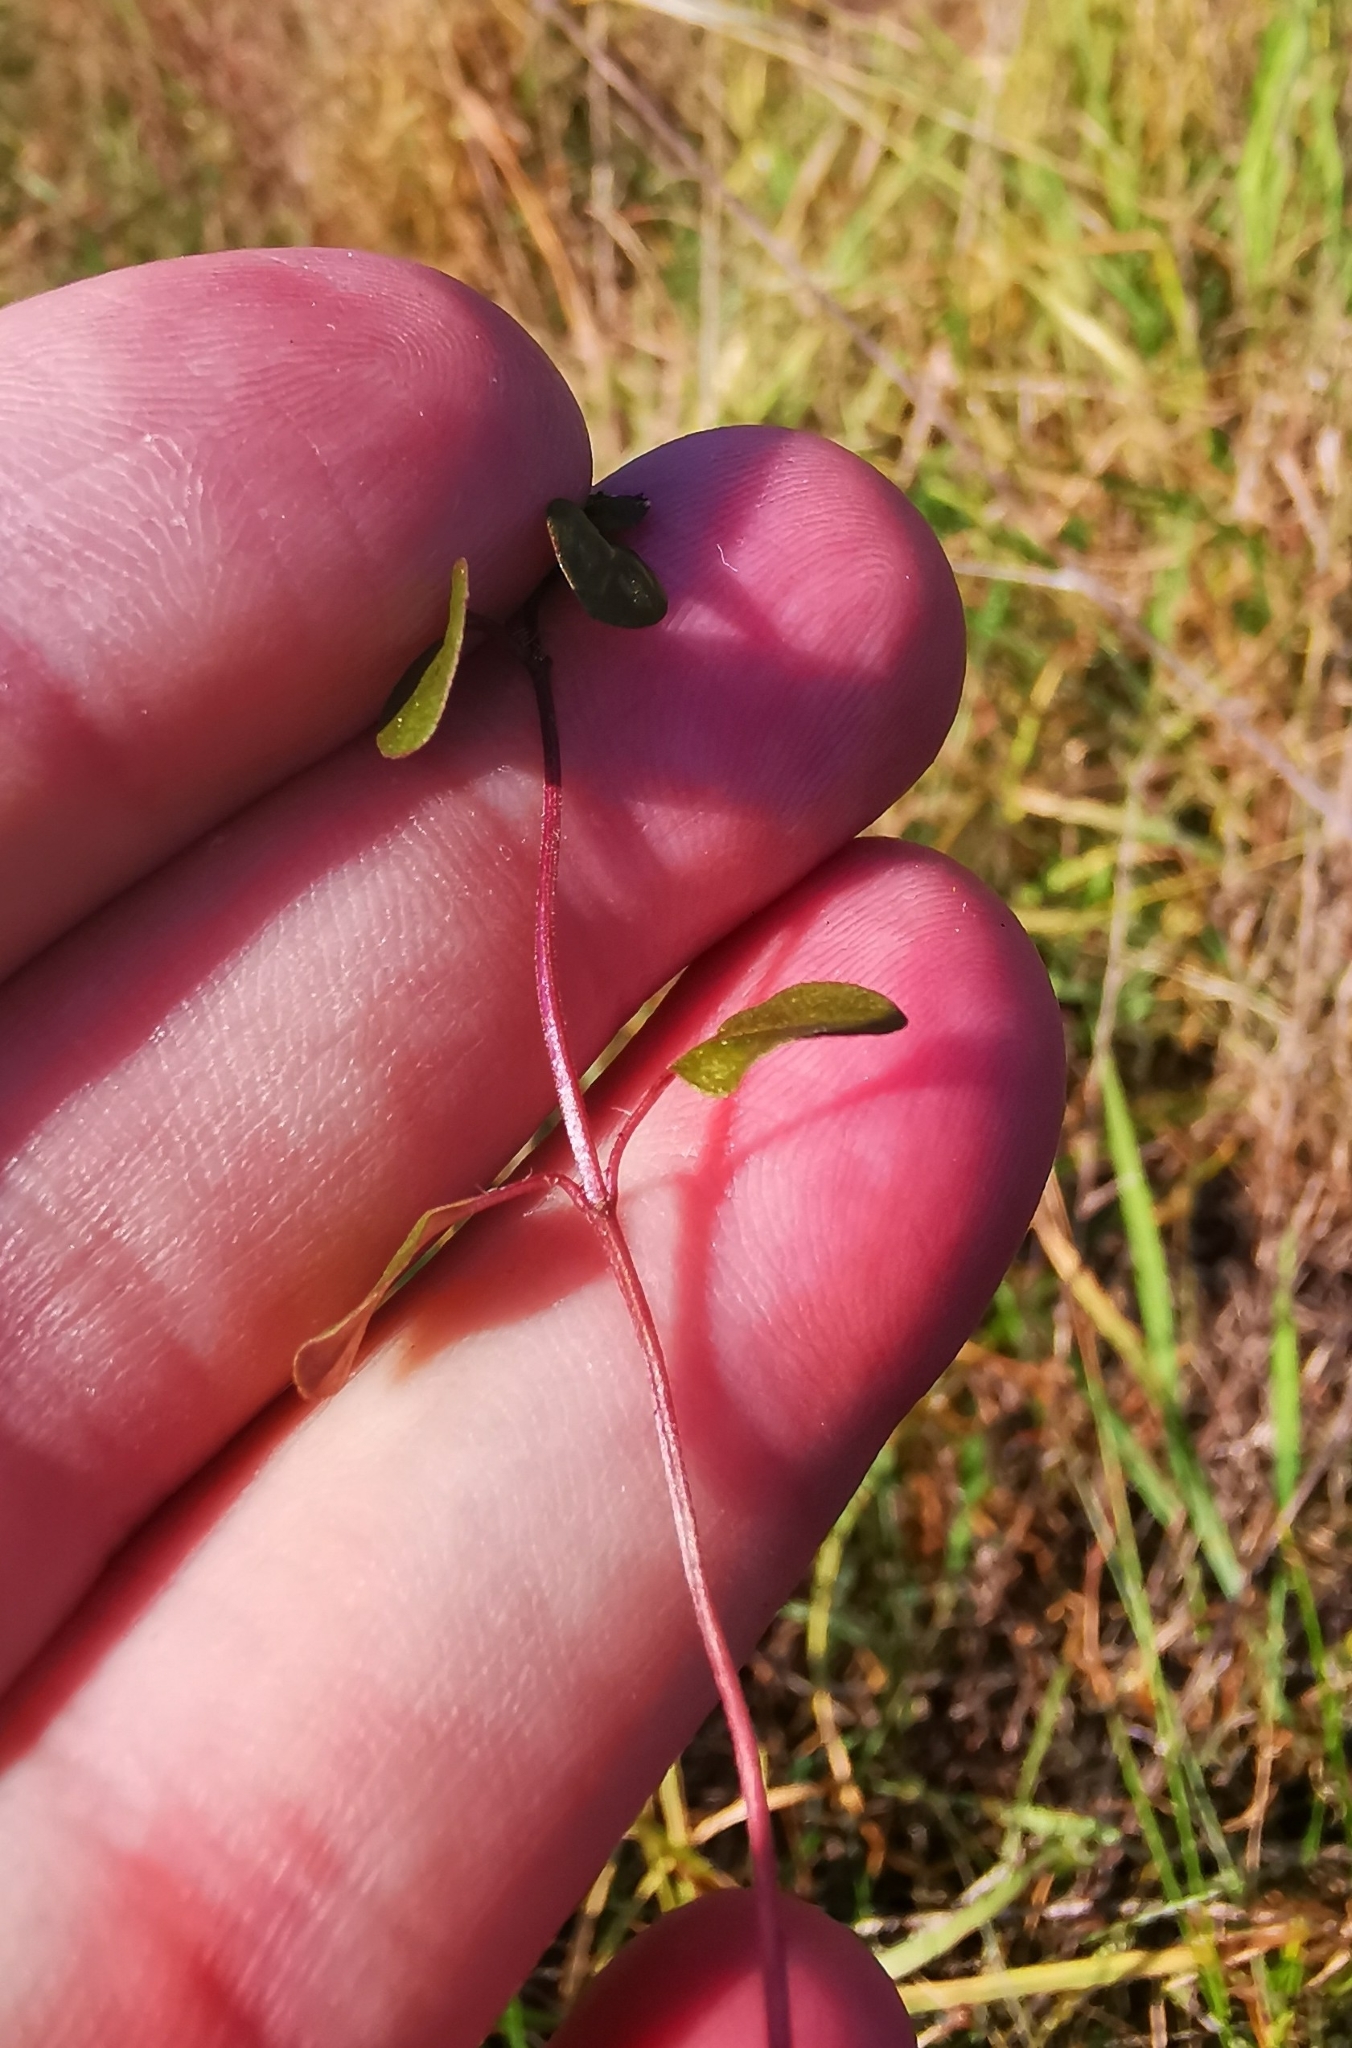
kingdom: Plantae
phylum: Tracheophyta
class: Magnoliopsida
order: Lamiales
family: Lamiaceae
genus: Thymus
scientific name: Thymus pulegioides
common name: Large thyme
